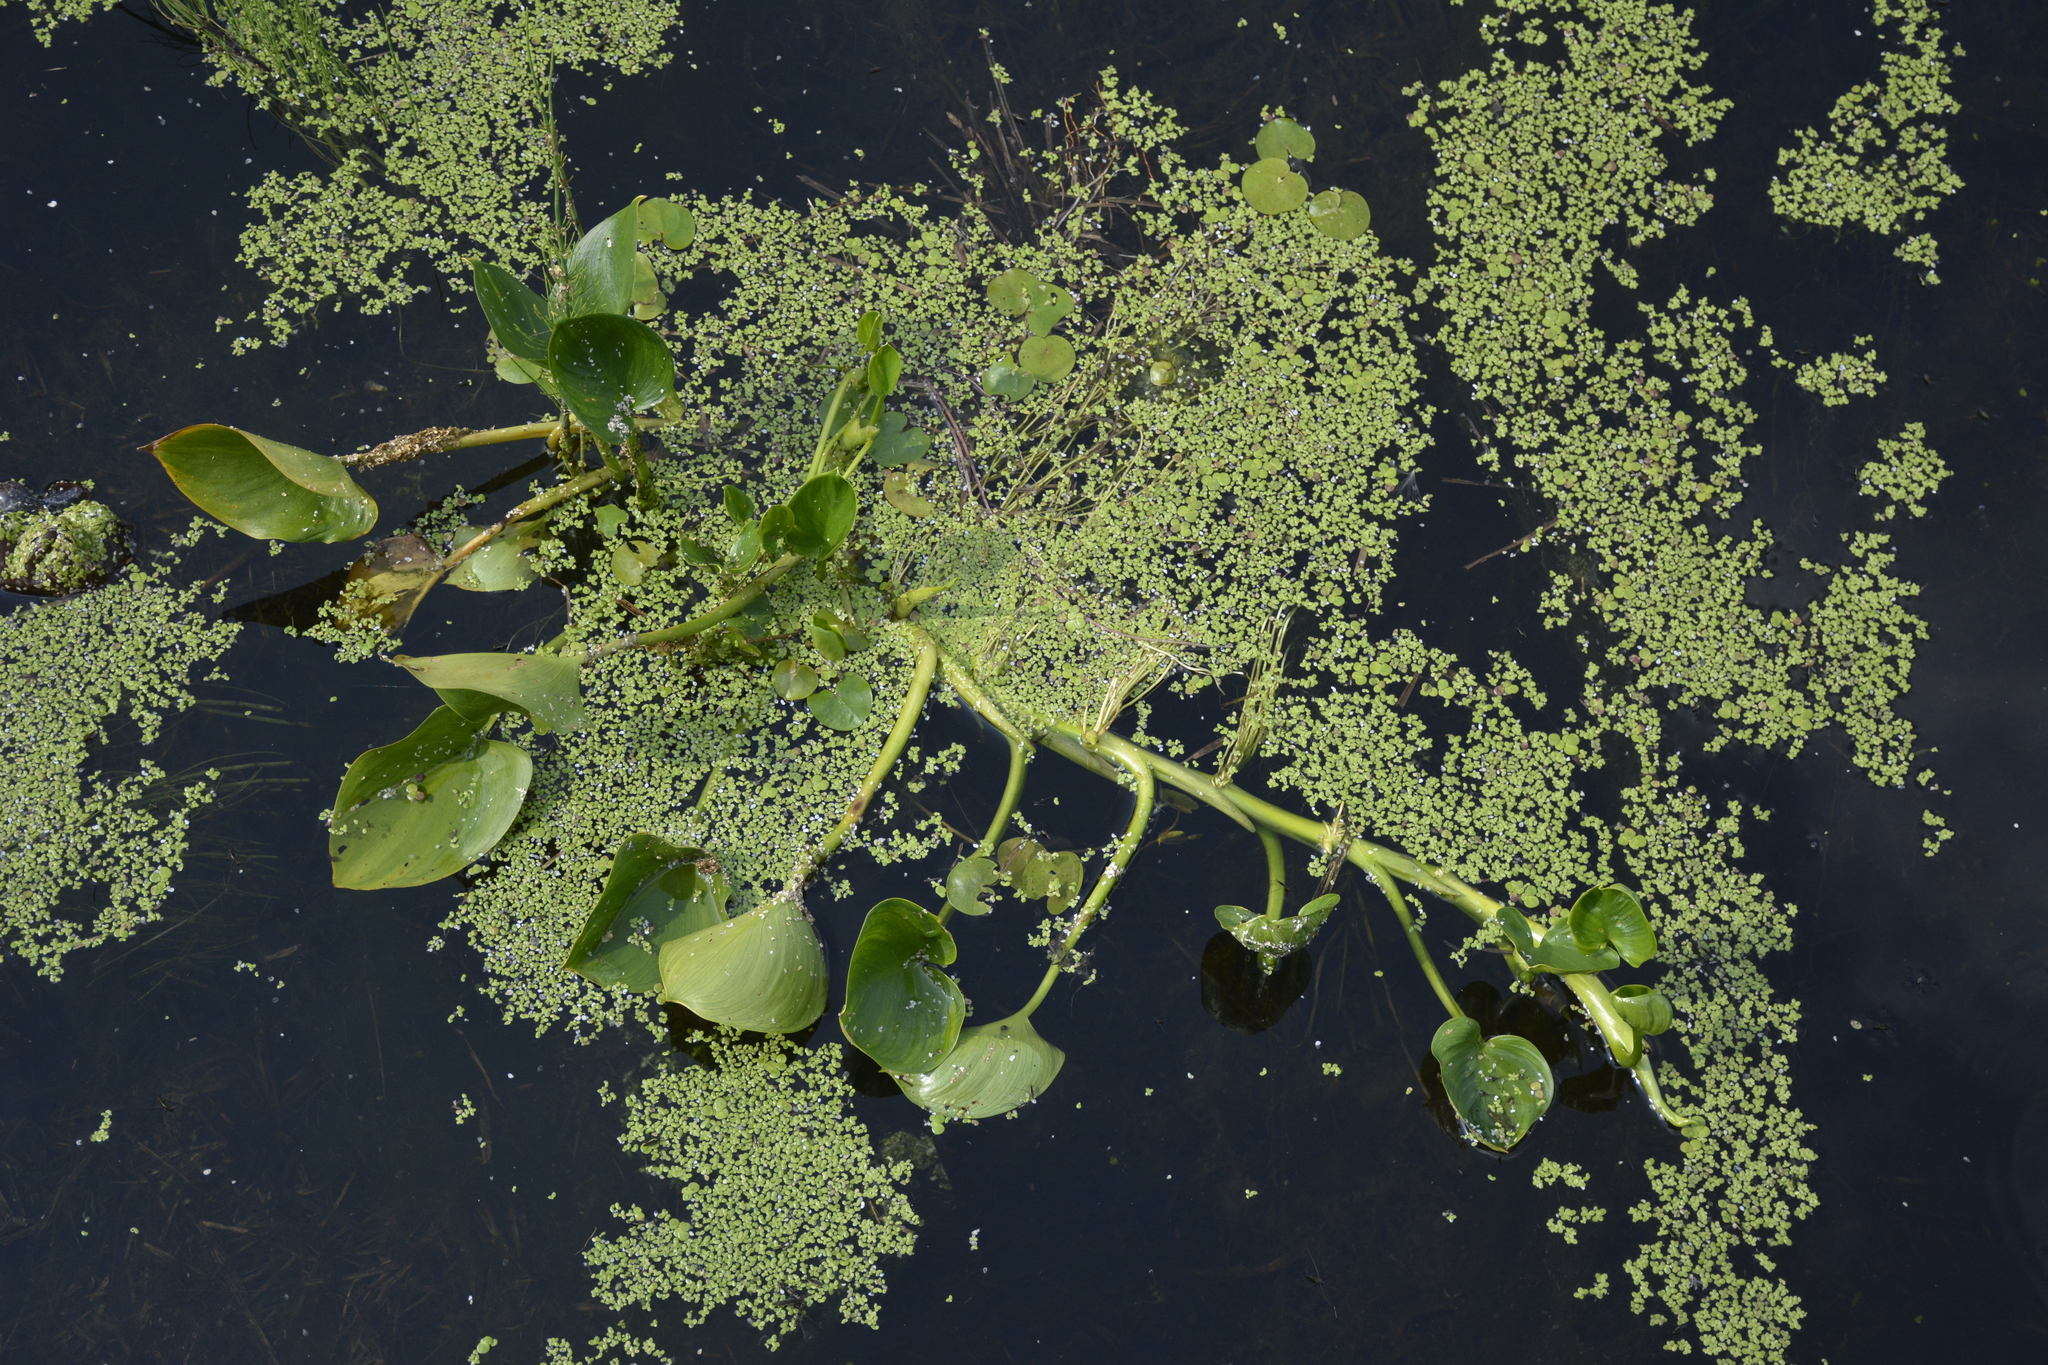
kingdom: Plantae
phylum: Tracheophyta
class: Liliopsida
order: Alismatales
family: Araceae
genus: Calla
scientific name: Calla palustris
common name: Bog arum
